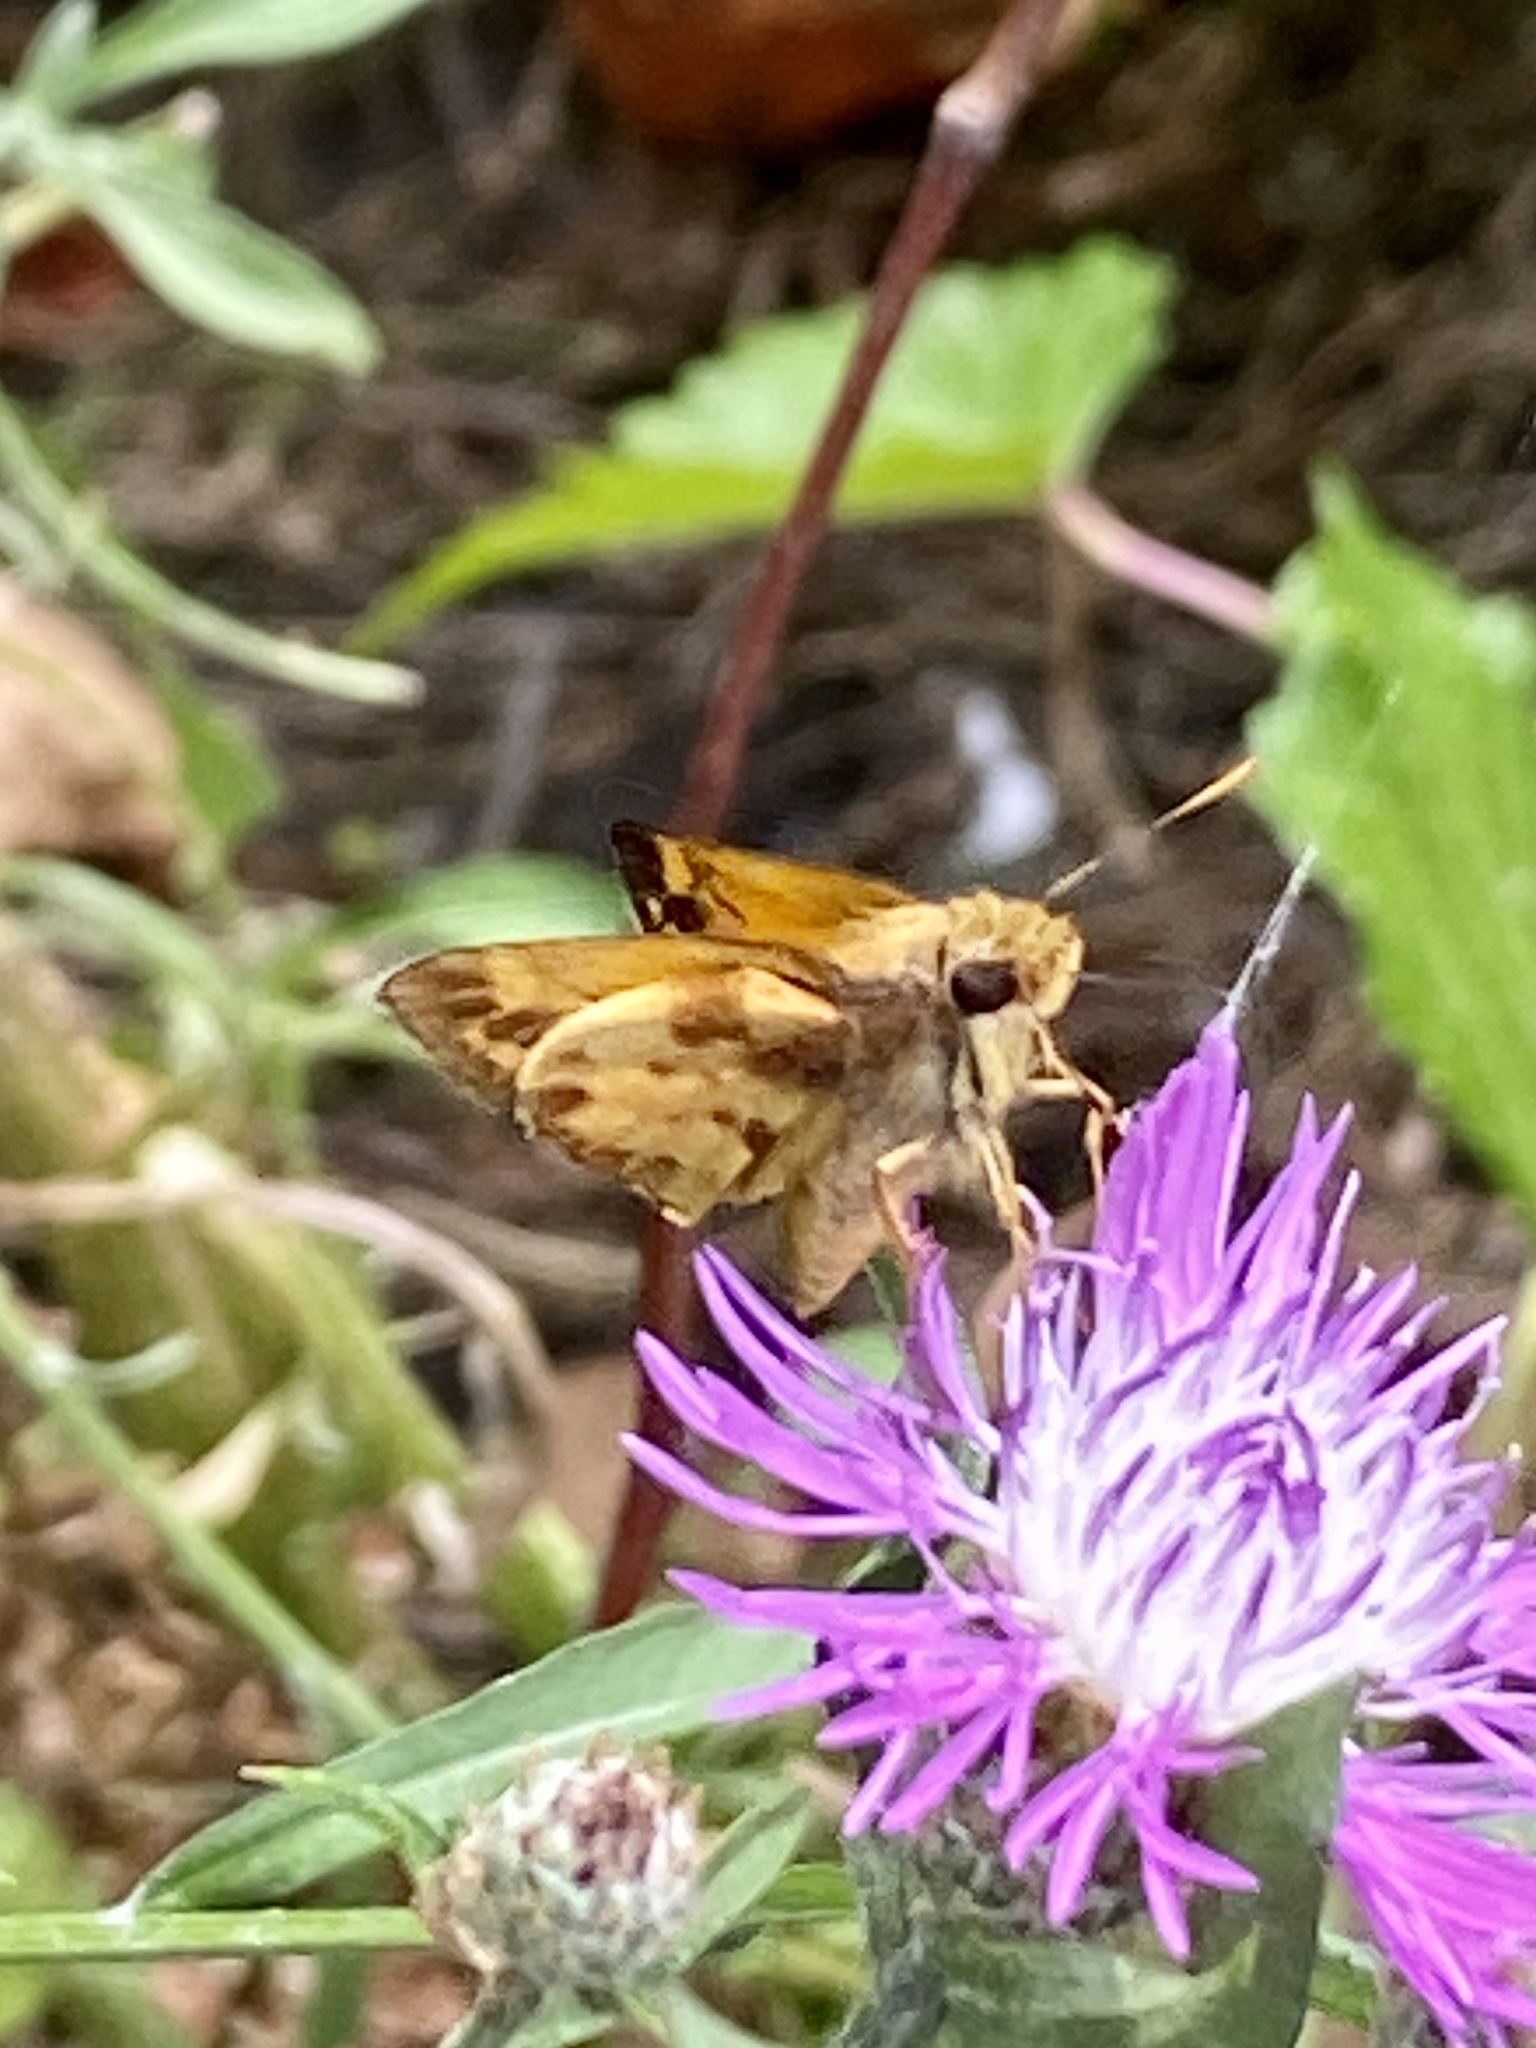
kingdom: Animalia
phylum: Arthropoda
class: Insecta
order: Lepidoptera
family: Hesperiidae
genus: Lon
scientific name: Lon zabulon
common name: Zabulon skipper
